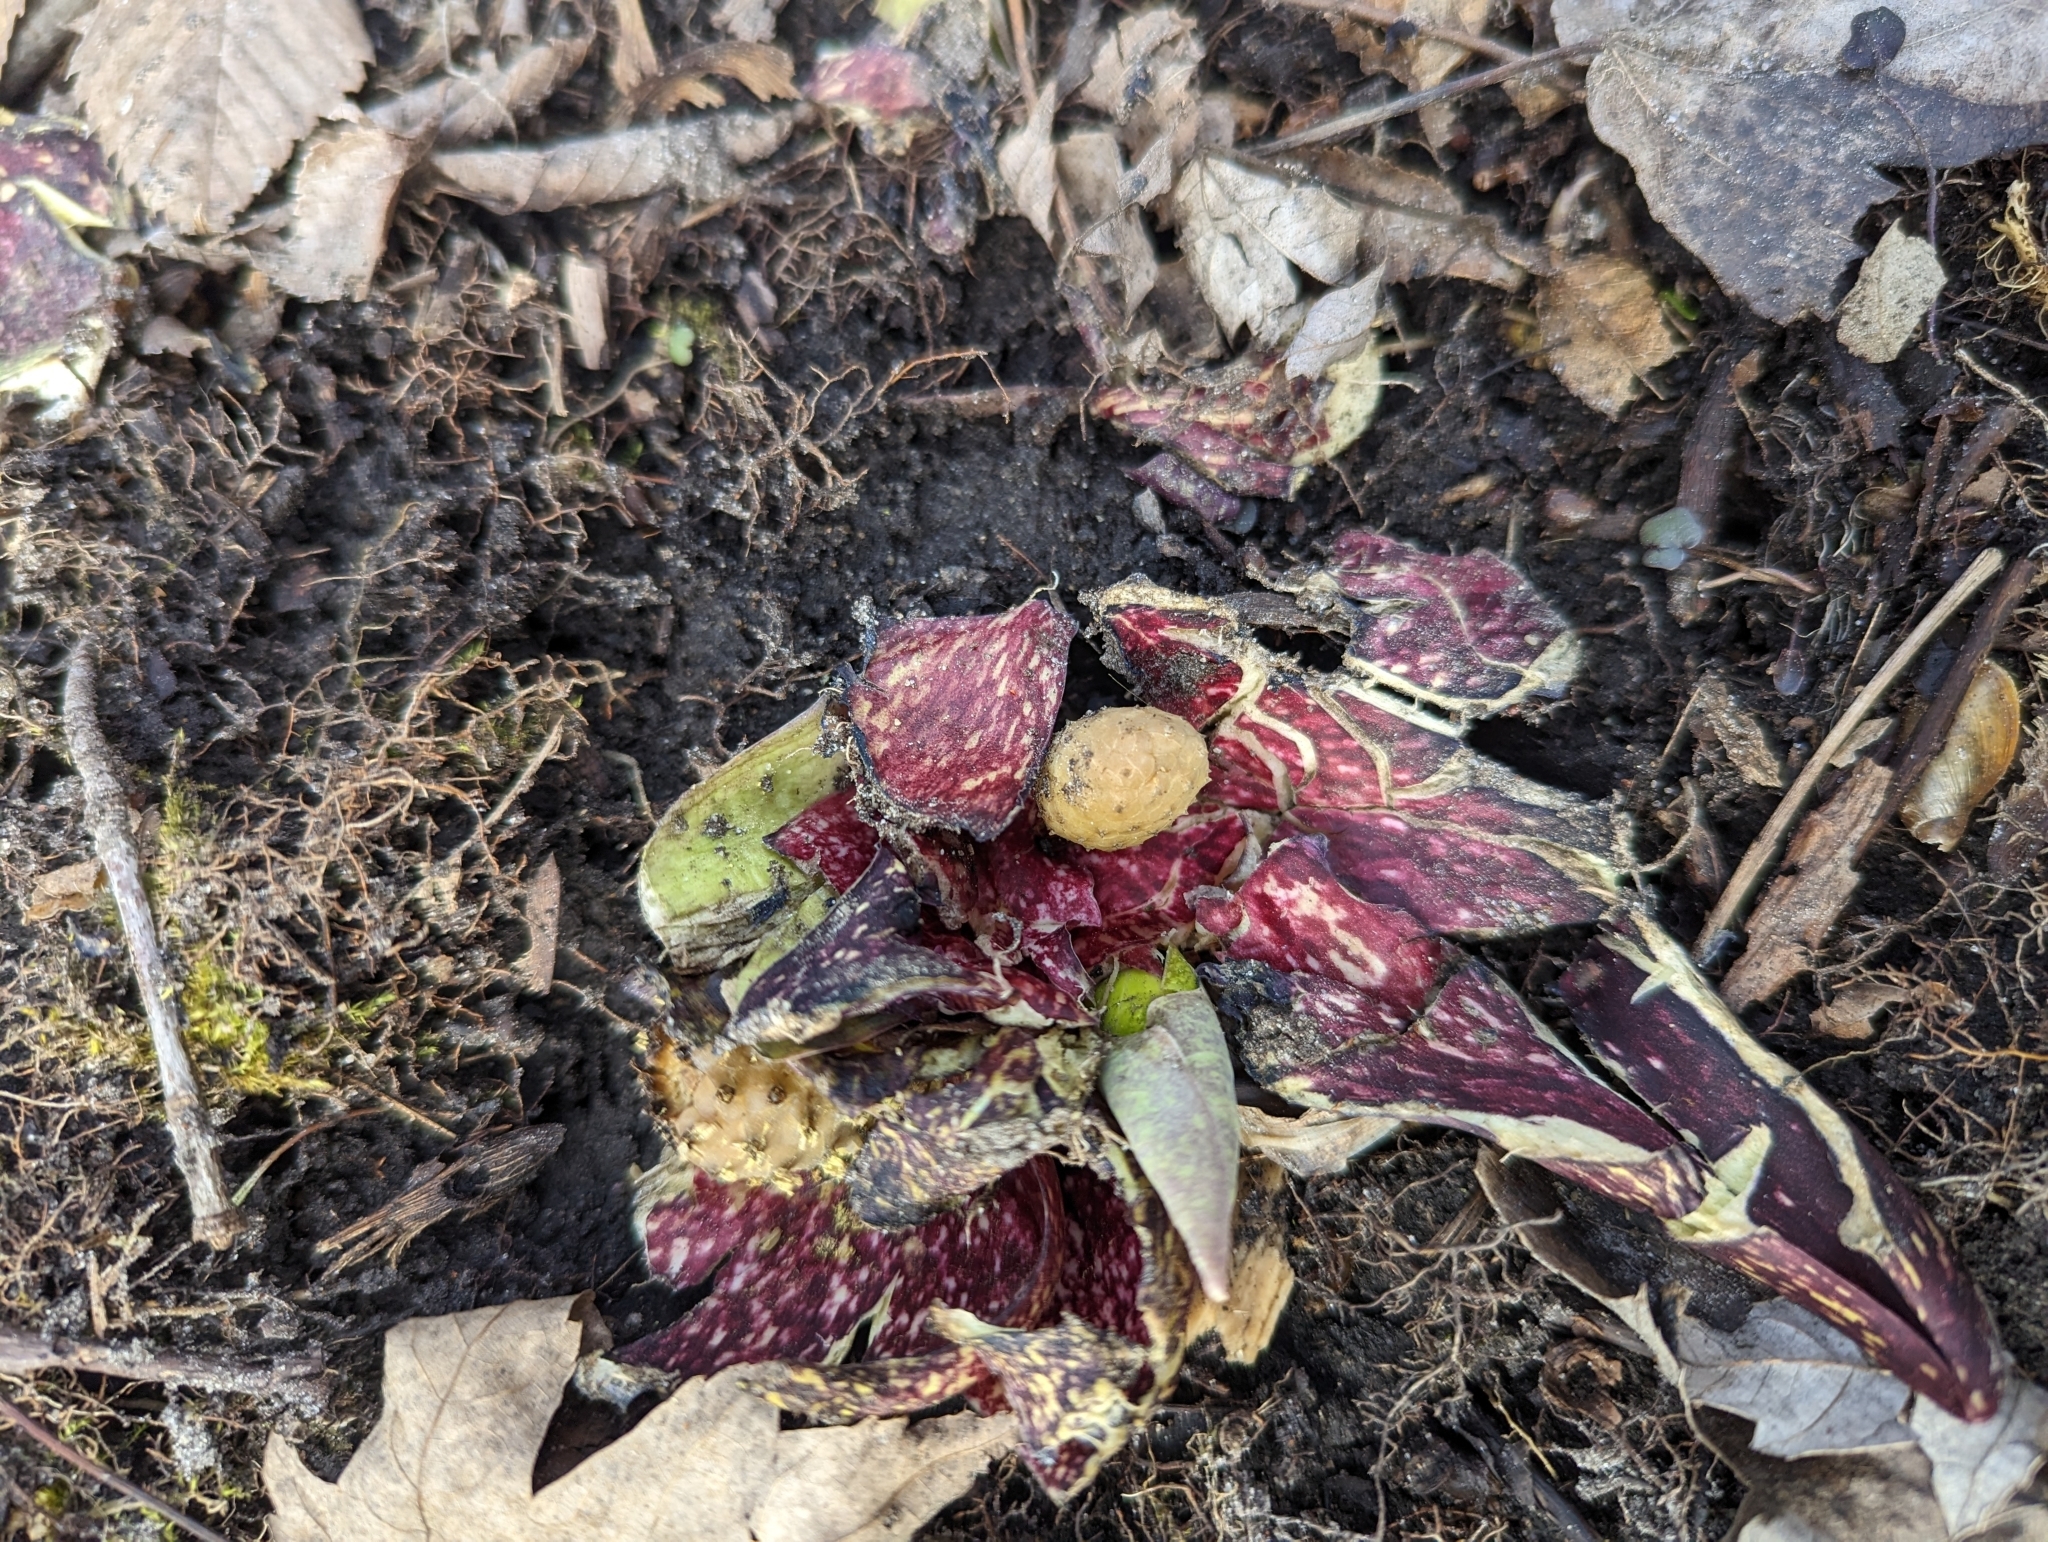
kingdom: Plantae
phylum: Tracheophyta
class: Liliopsida
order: Alismatales
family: Araceae
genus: Symplocarpus
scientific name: Symplocarpus foetidus
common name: Eastern skunk cabbage
